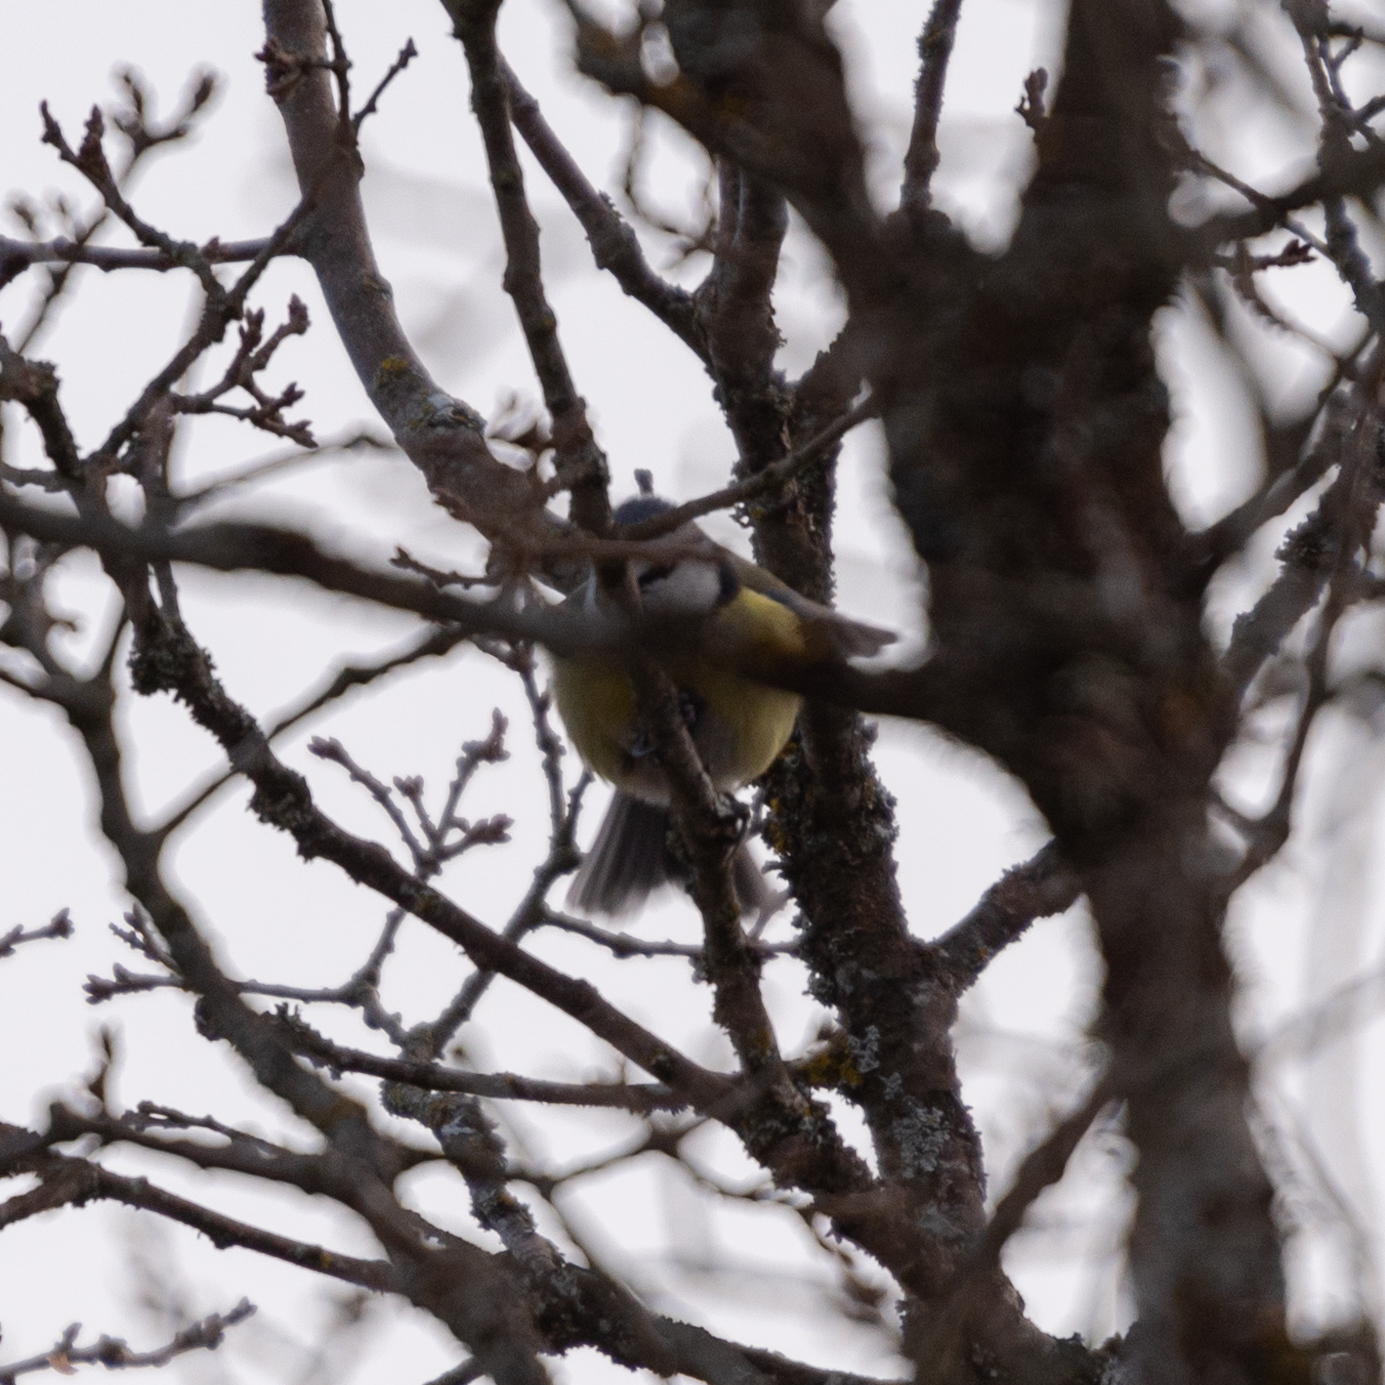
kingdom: Animalia
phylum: Chordata
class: Aves
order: Passeriformes
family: Paridae
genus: Cyanistes
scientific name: Cyanistes caeruleus
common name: Eurasian blue tit
